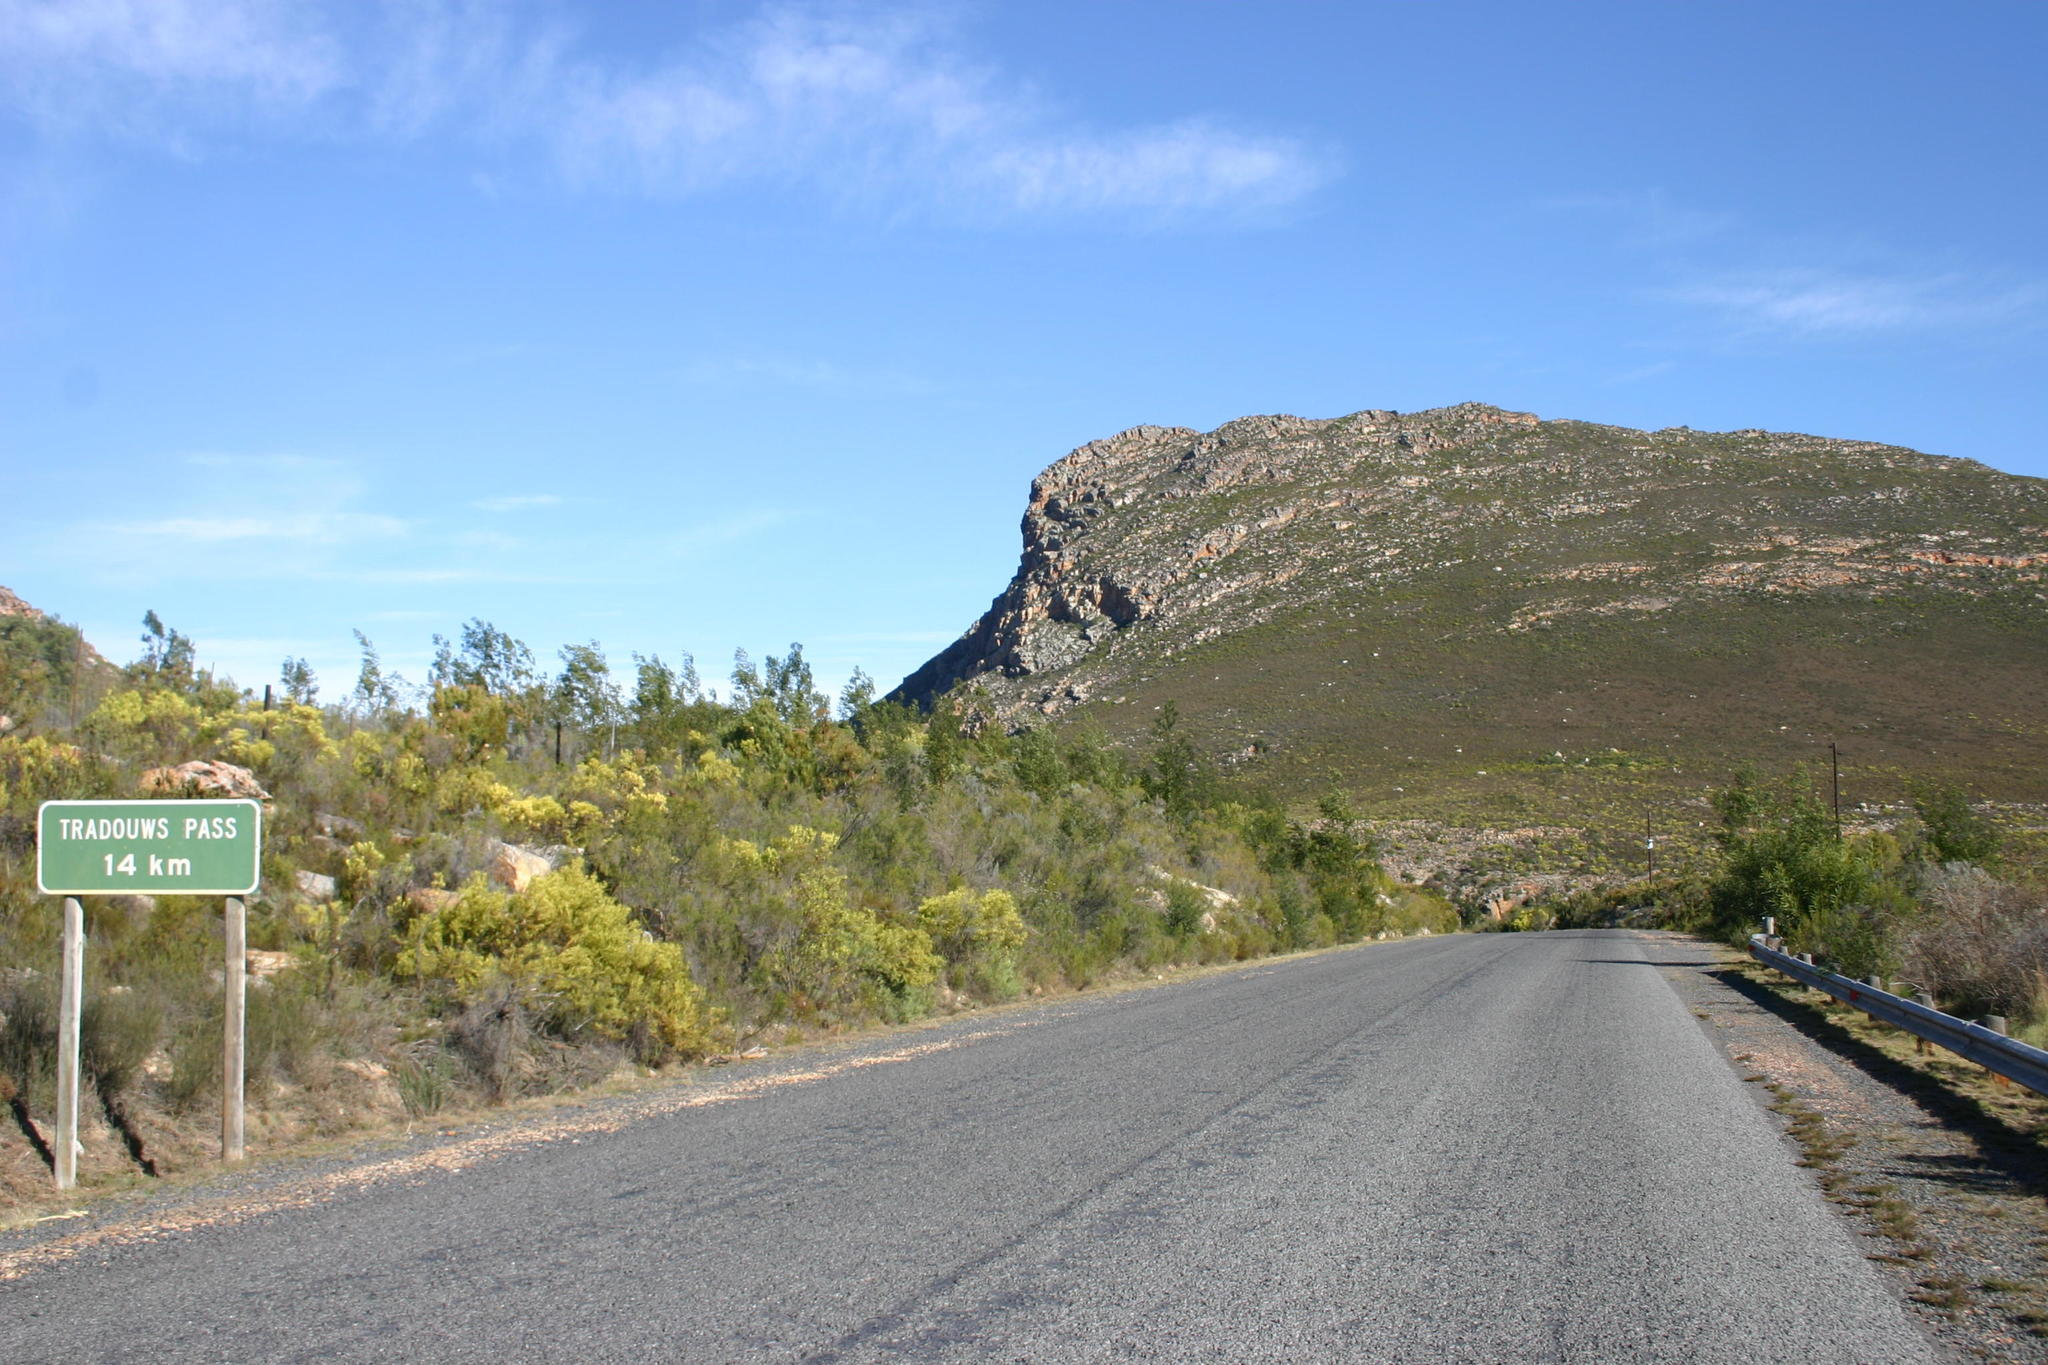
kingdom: Plantae
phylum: Tracheophyta
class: Magnoliopsida
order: Fabales
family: Fabaceae
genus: Acacia
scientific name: Acacia mearnsii
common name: Black wattle
